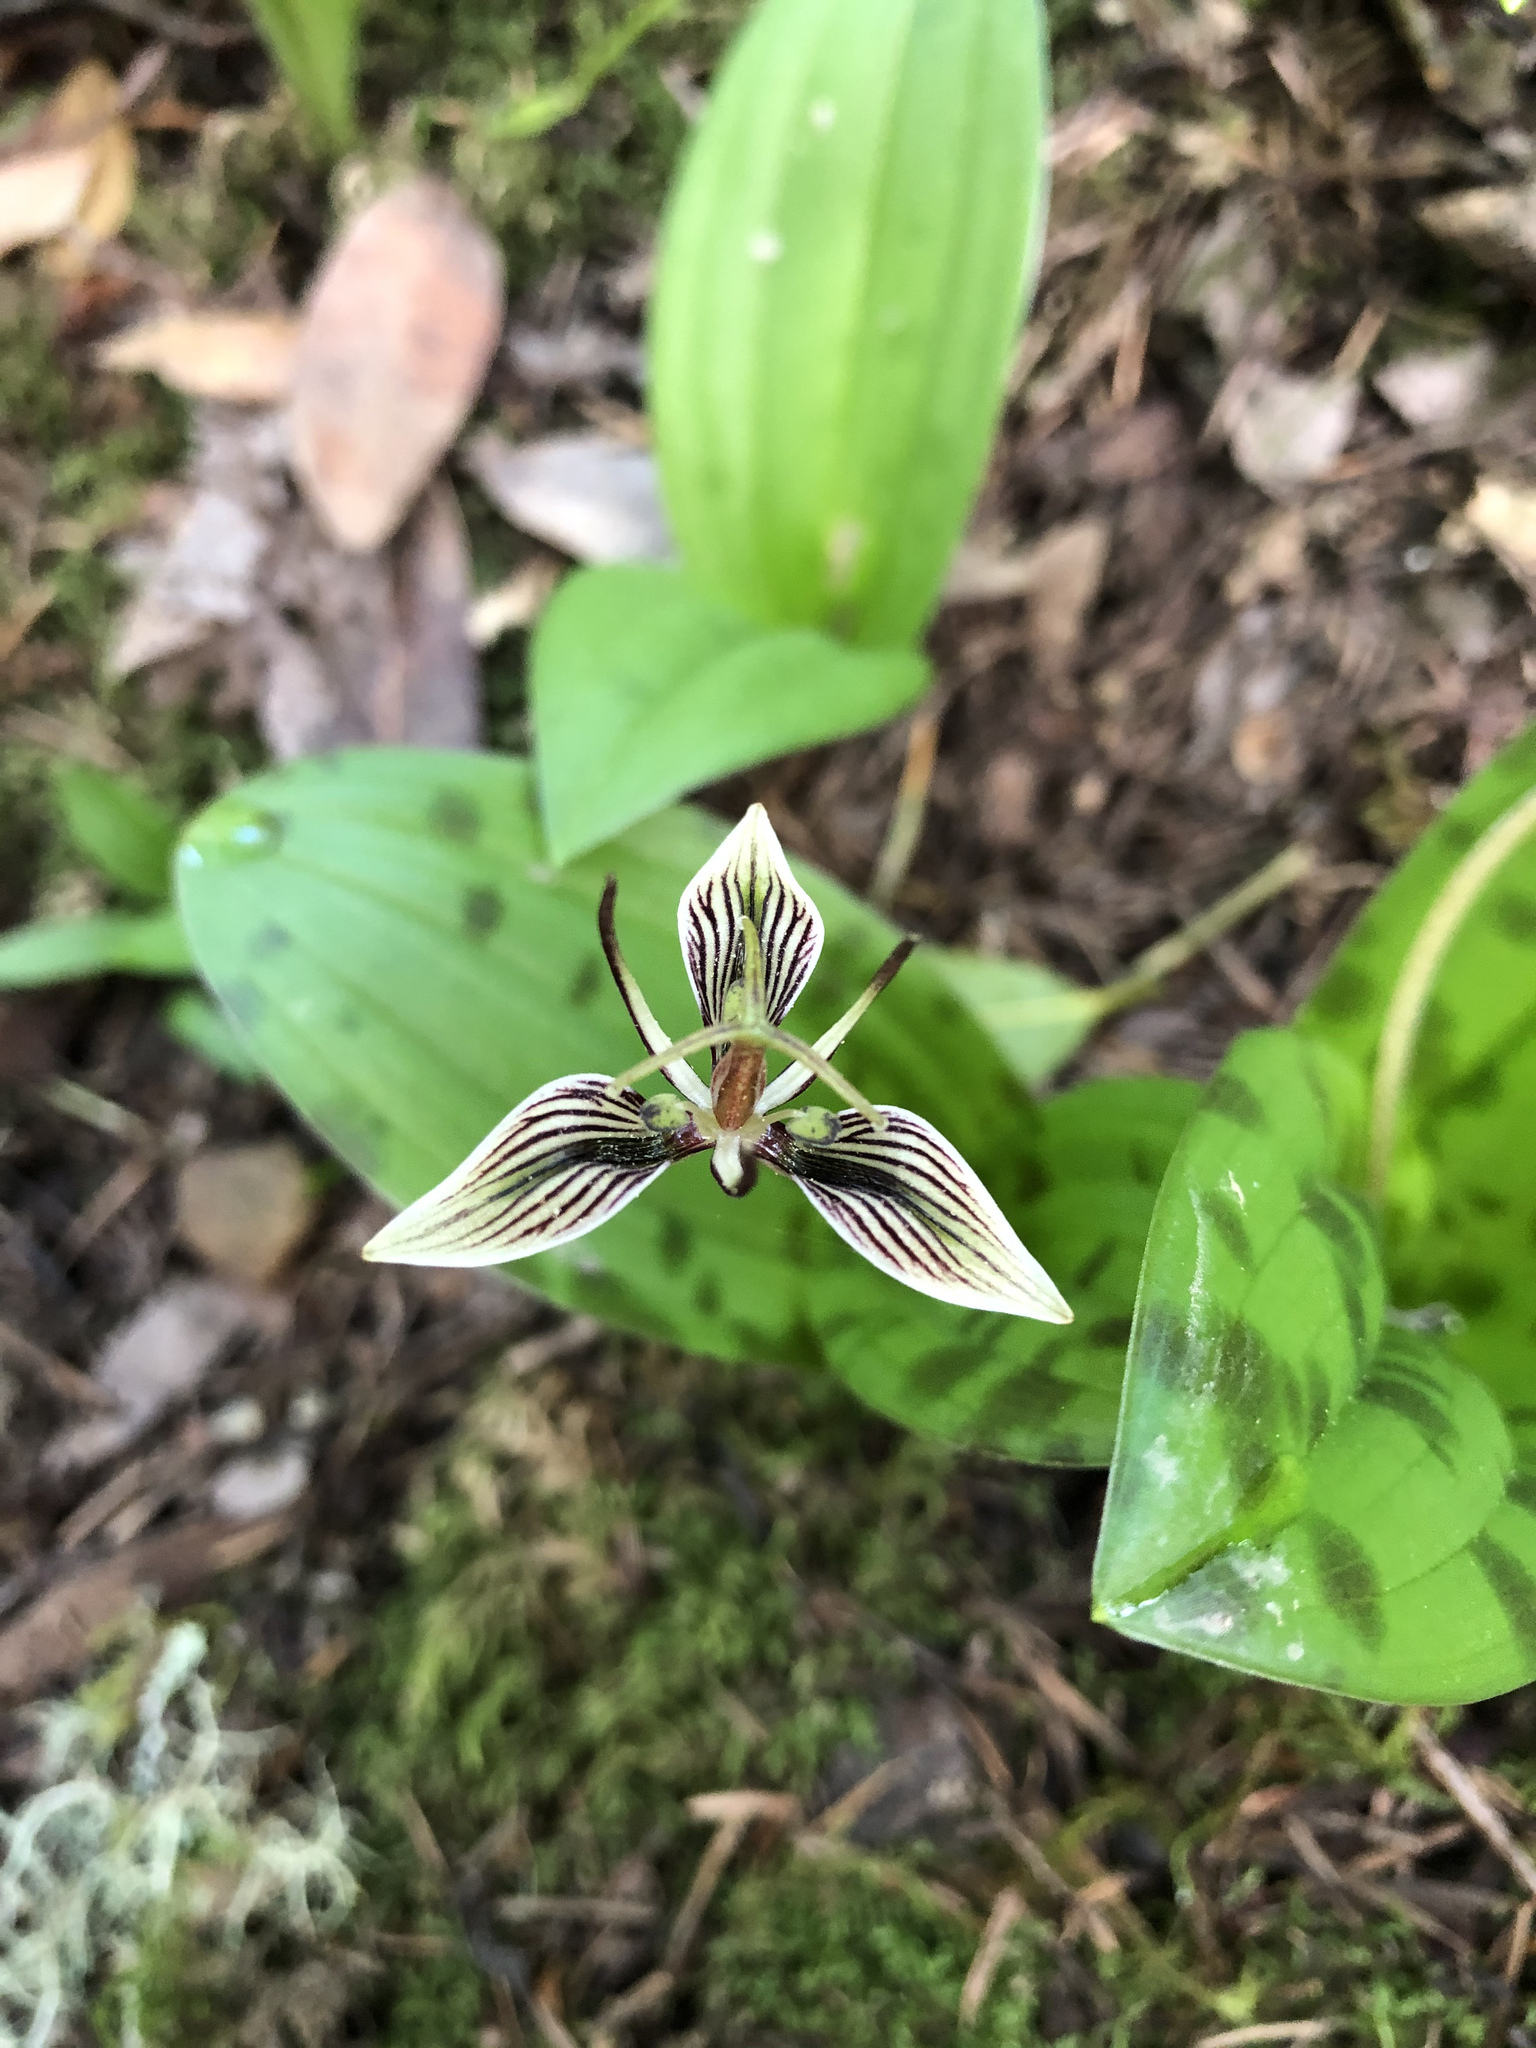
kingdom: Plantae
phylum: Tracheophyta
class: Liliopsida
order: Liliales
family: Liliaceae
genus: Scoliopus
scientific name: Scoliopus bigelovii
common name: Foetid adder's-tongue
